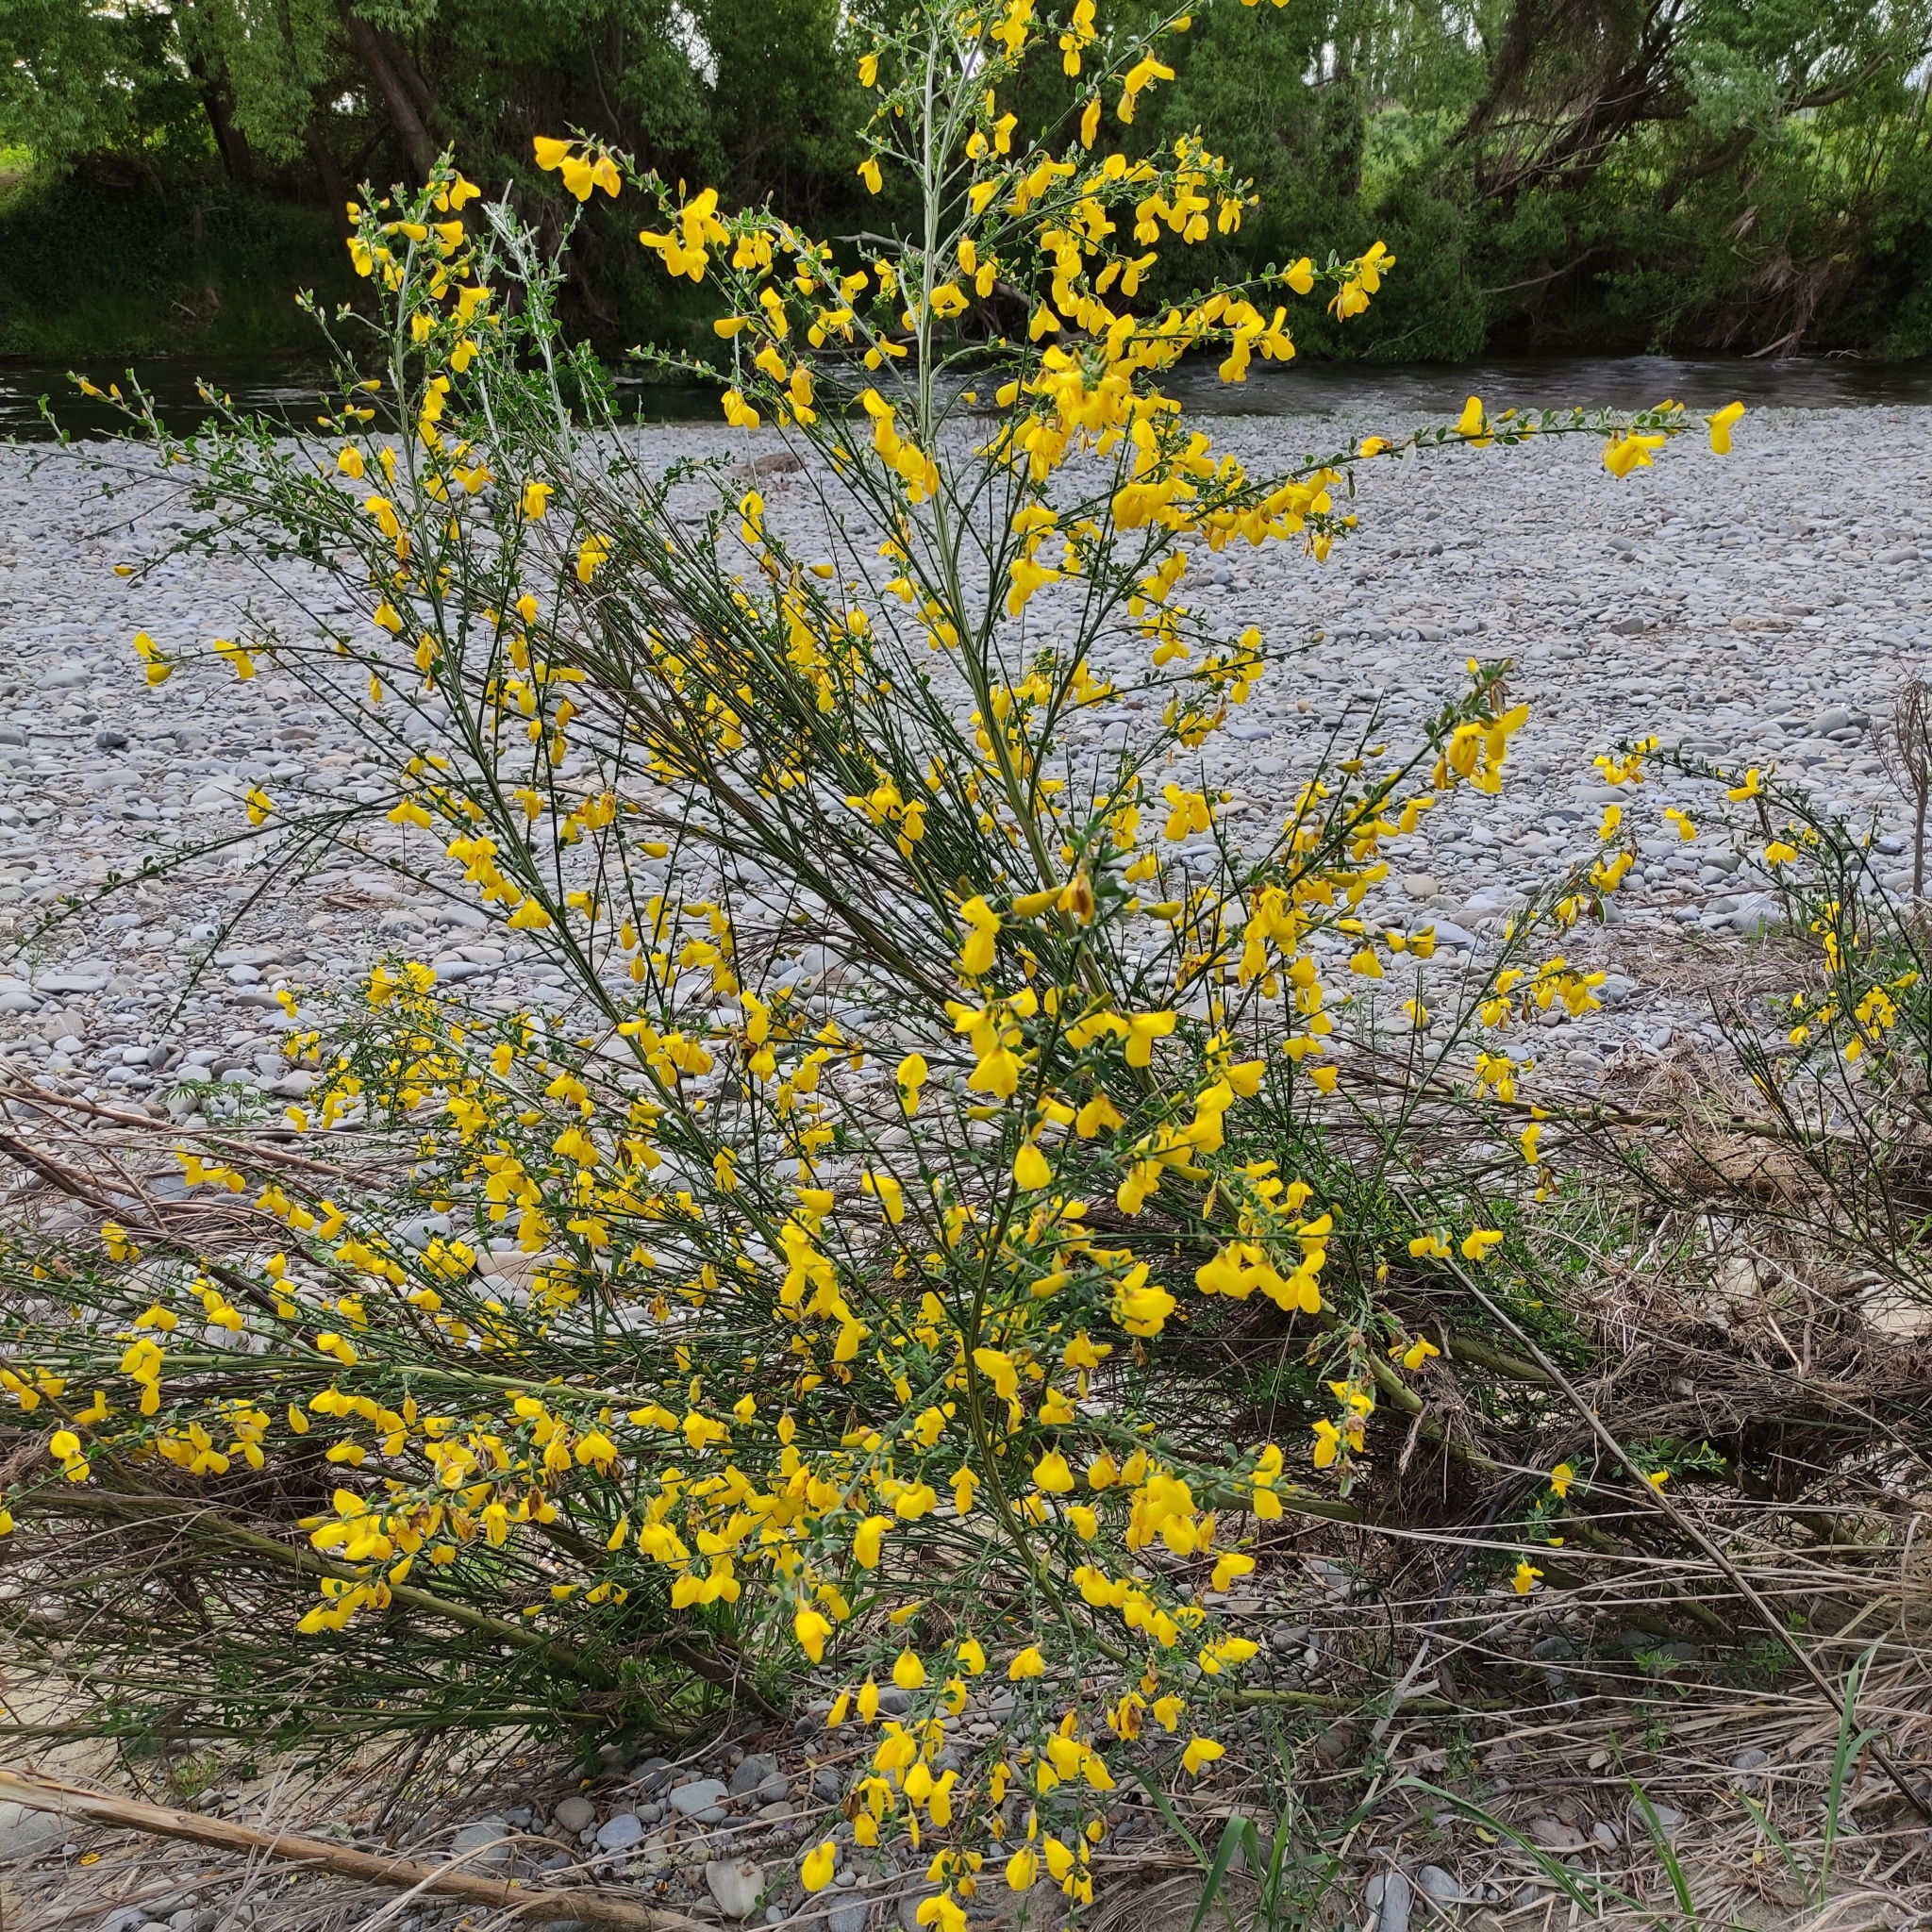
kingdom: Plantae
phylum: Tracheophyta
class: Magnoliopsida
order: Fabales
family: Fabaceae
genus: Cytisus
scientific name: Cytisus scoparius
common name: Scotch broom
